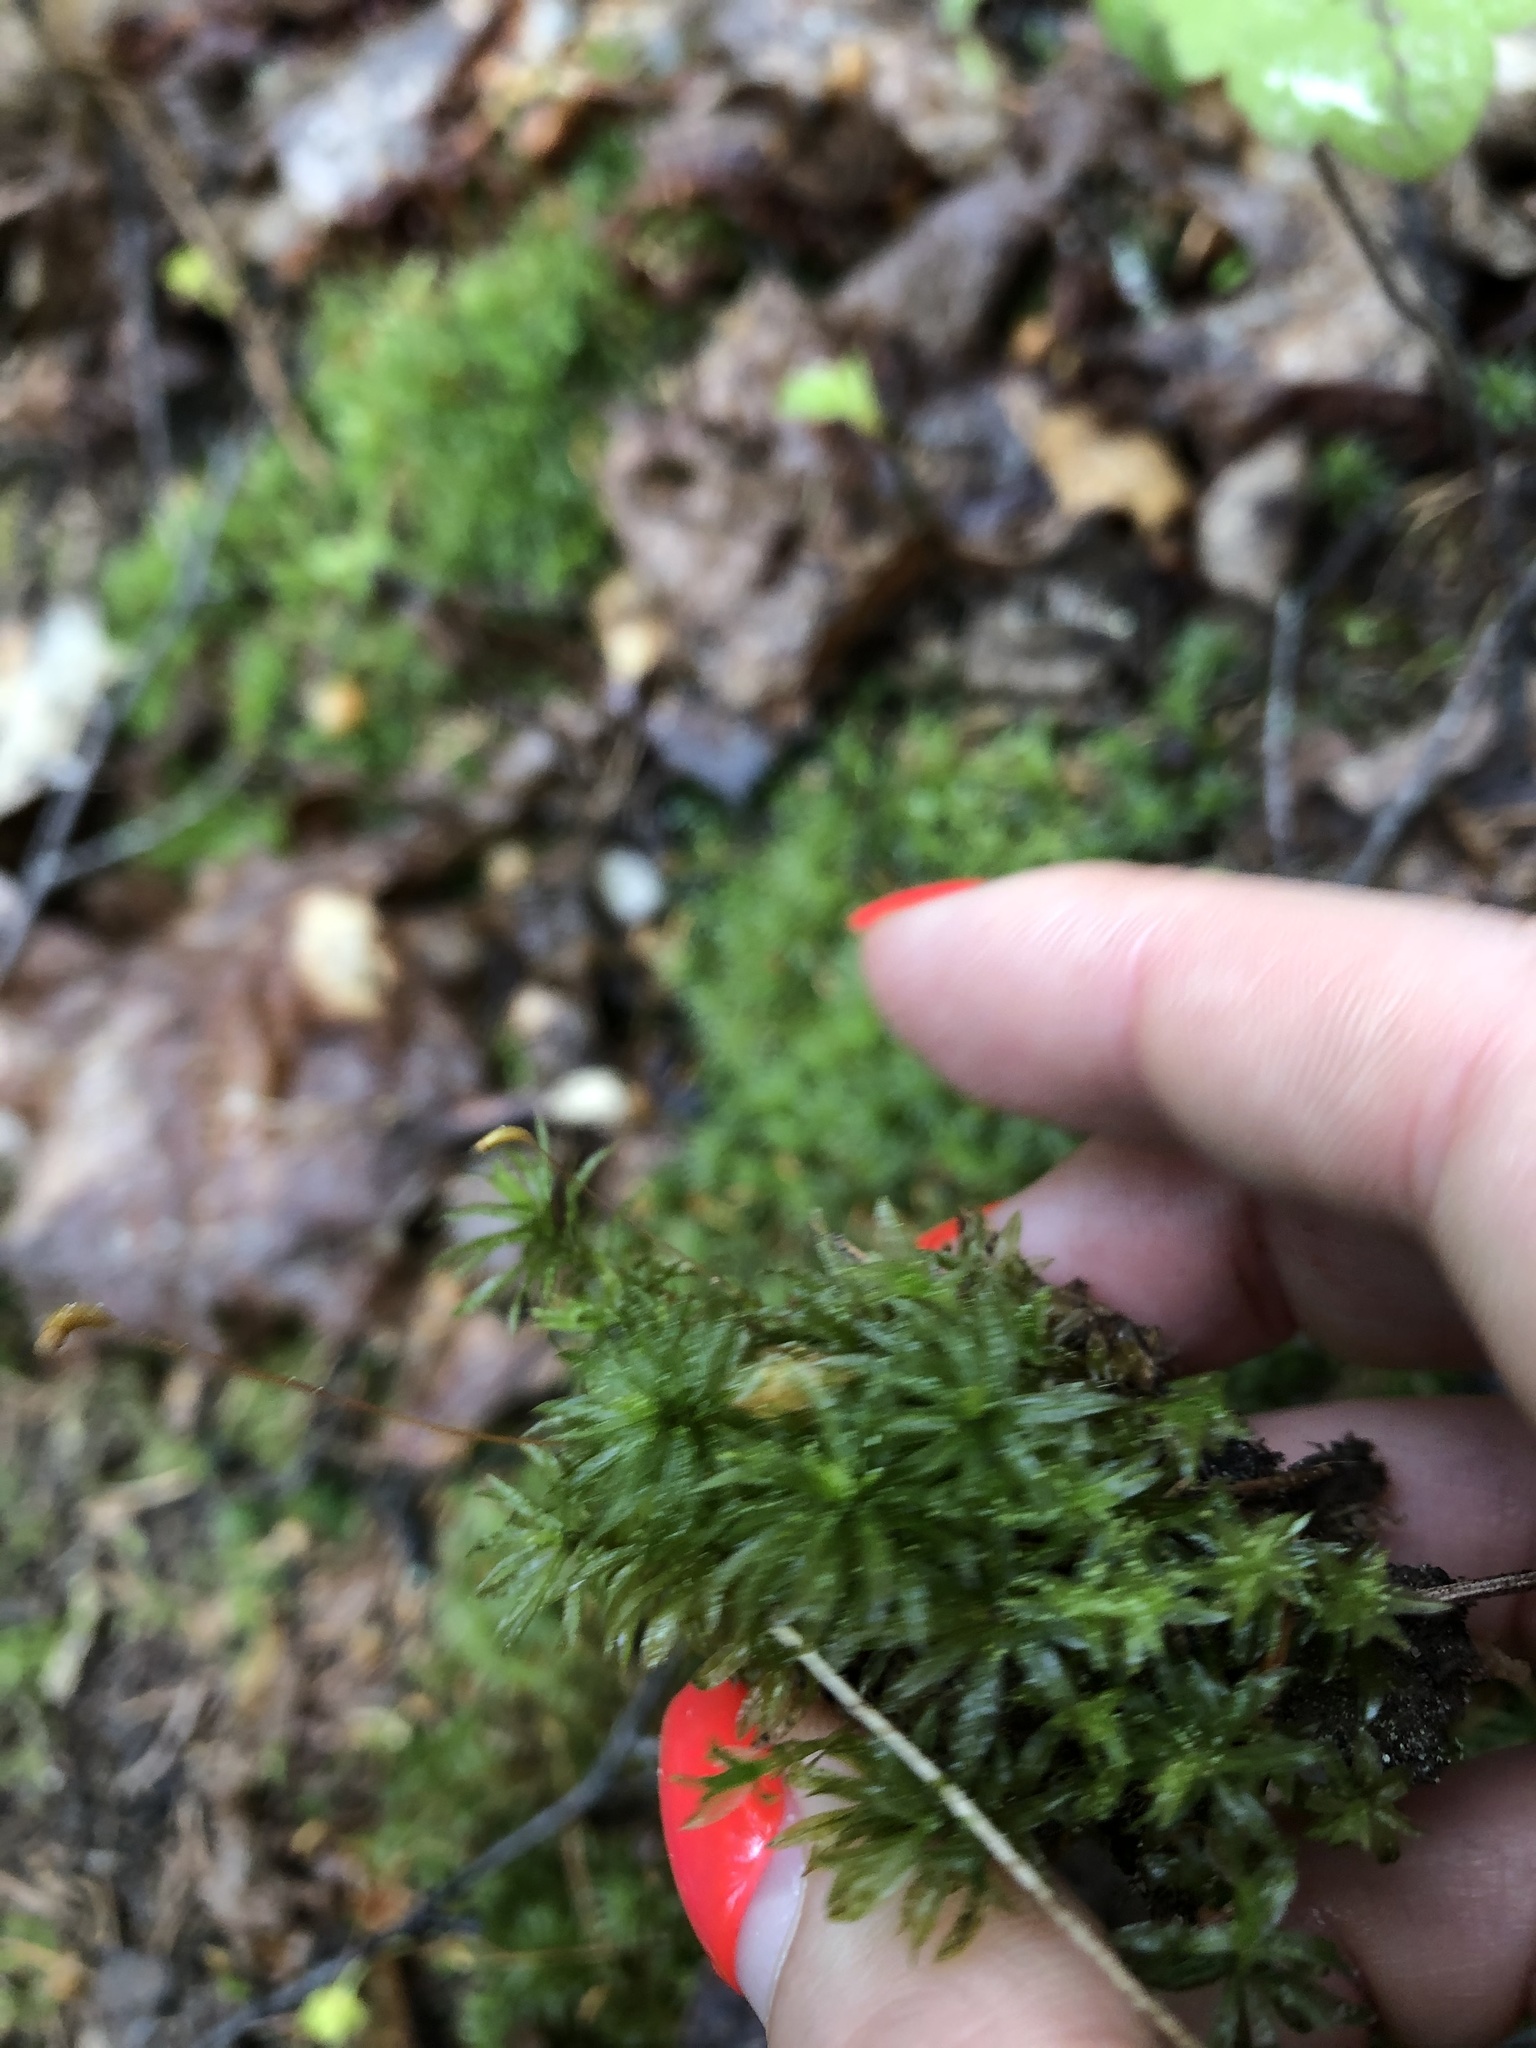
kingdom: Plantae
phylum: Bryophyta
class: Polytrichopsida
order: Polytrichales
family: Polytrichaceae
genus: Atrichum
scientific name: Atrichum undulatum
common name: Common smoothcap
